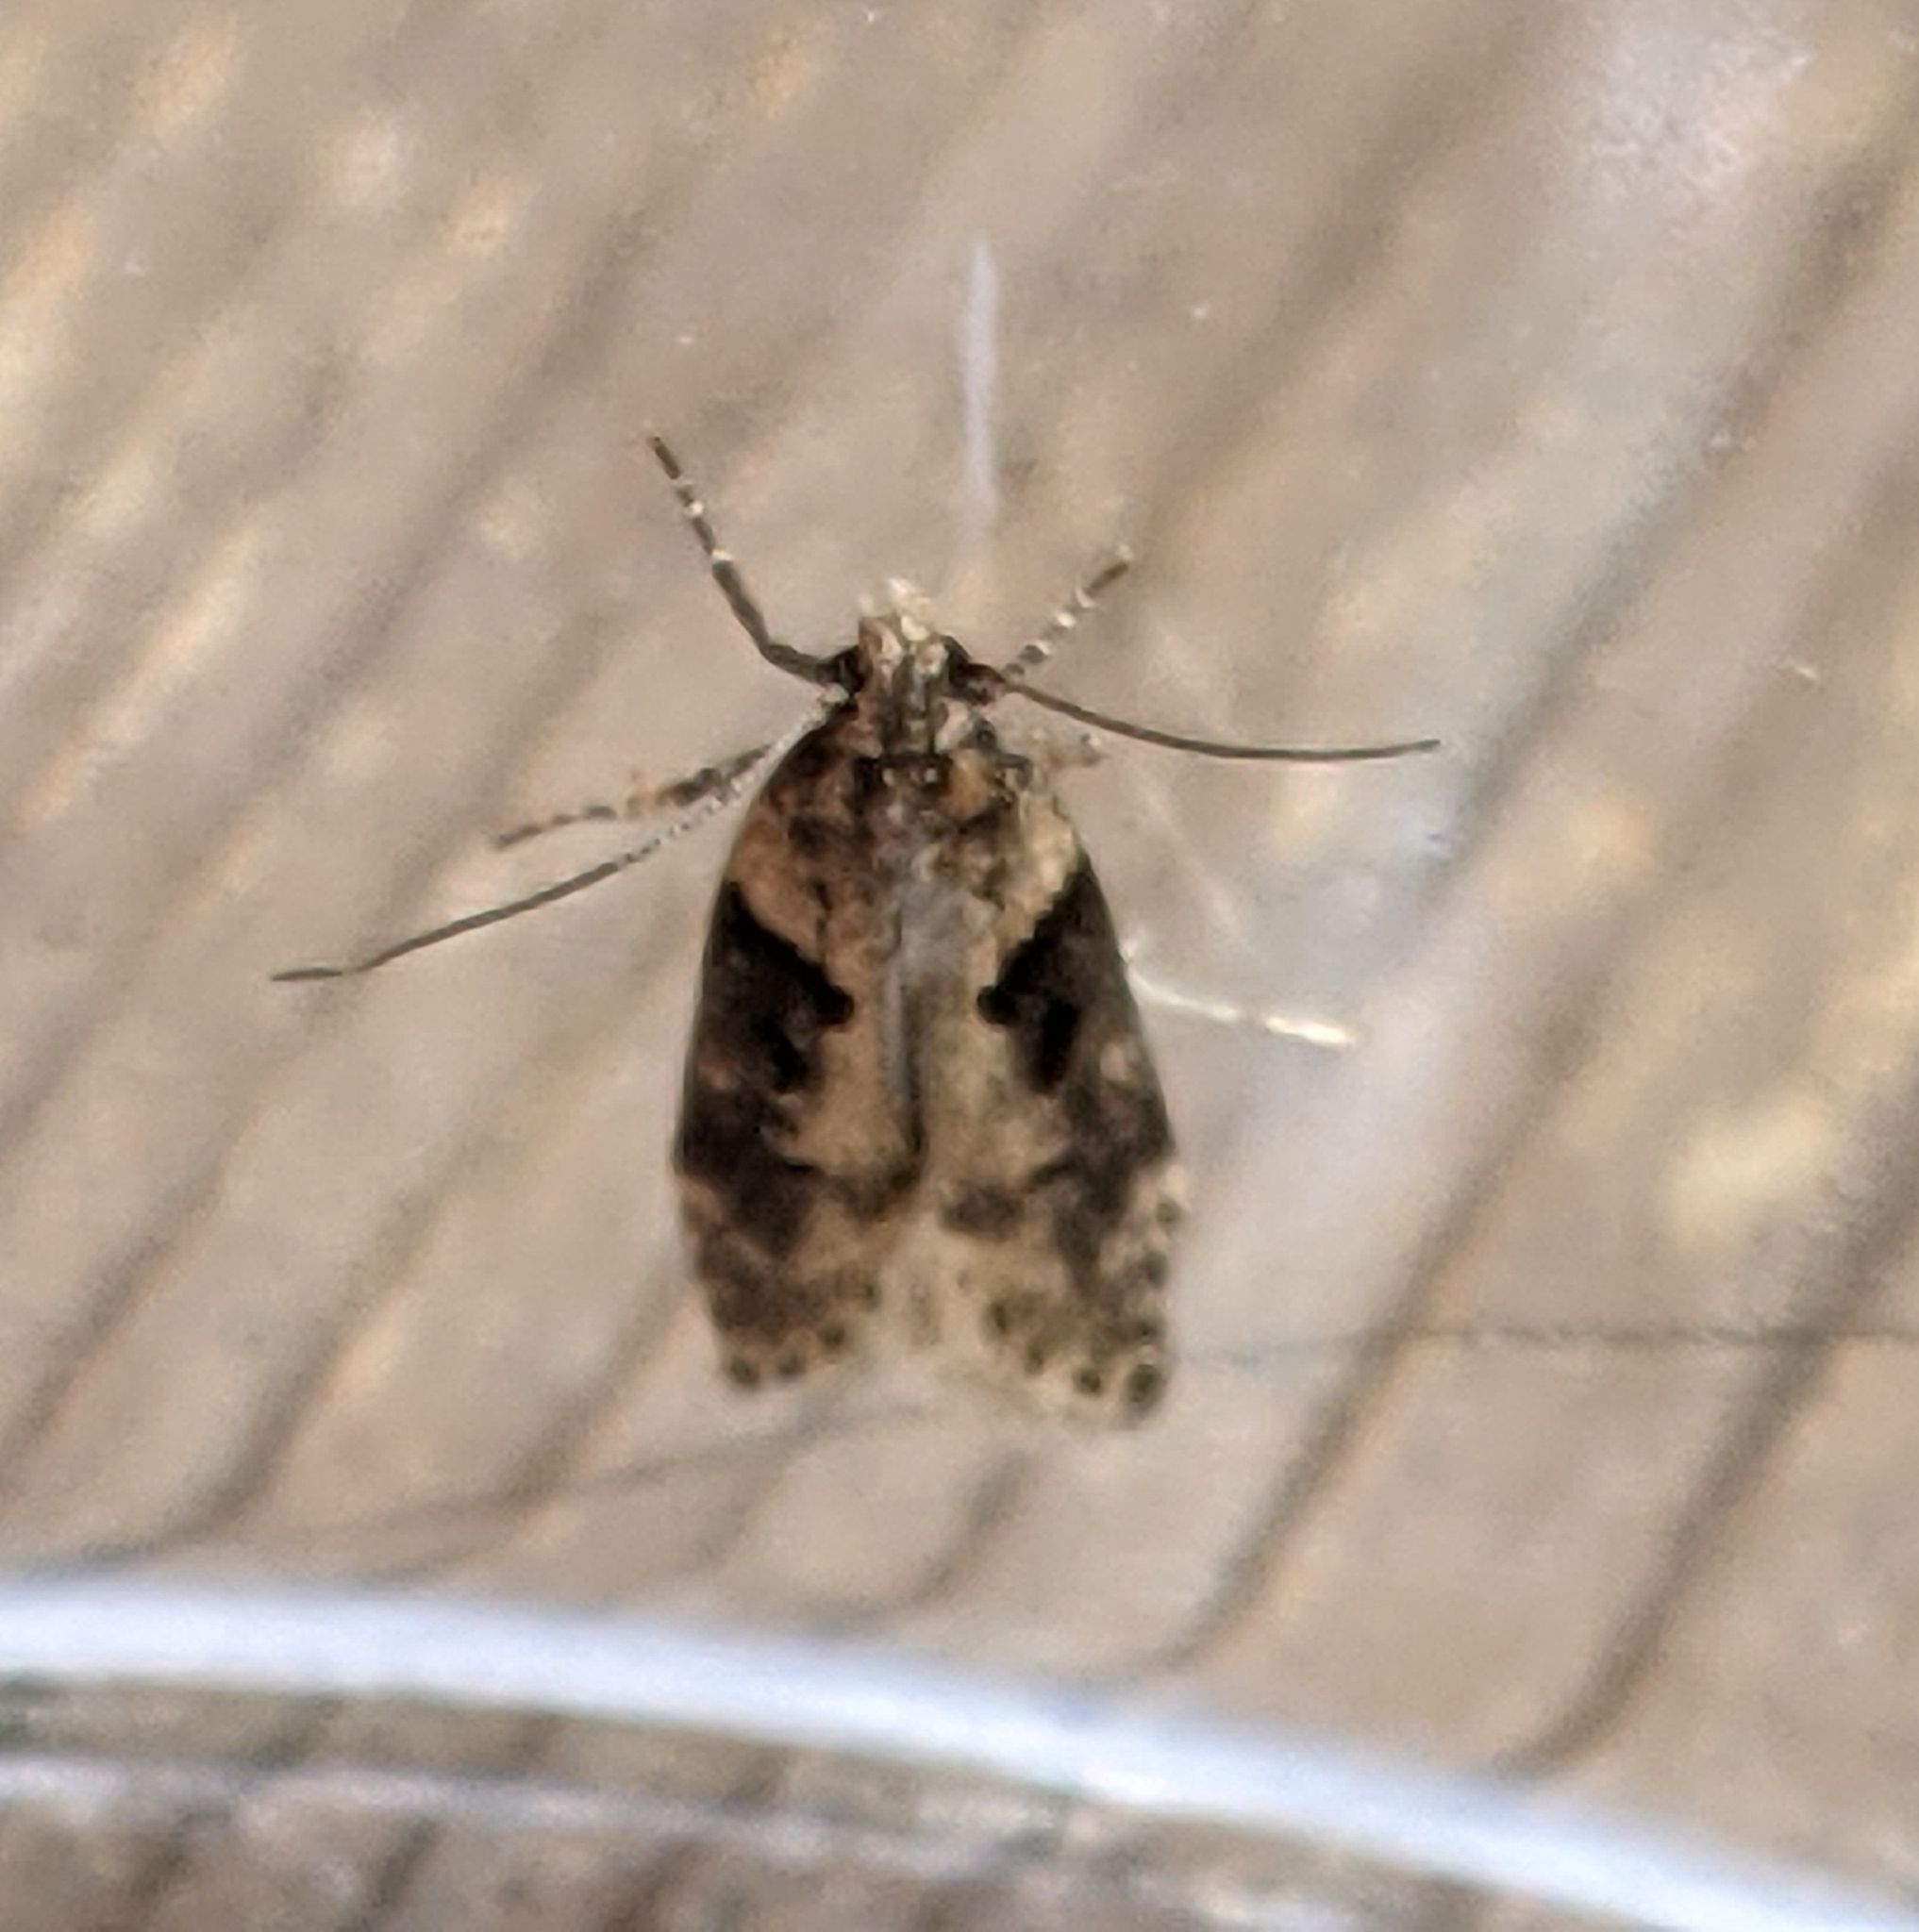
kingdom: Animalia
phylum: Arthropoda
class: Insecta
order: Lepidoptera
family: Gelechiidae
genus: Chionodes
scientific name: Chionodes mediofuscella
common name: Black-smudged chionodes moth
